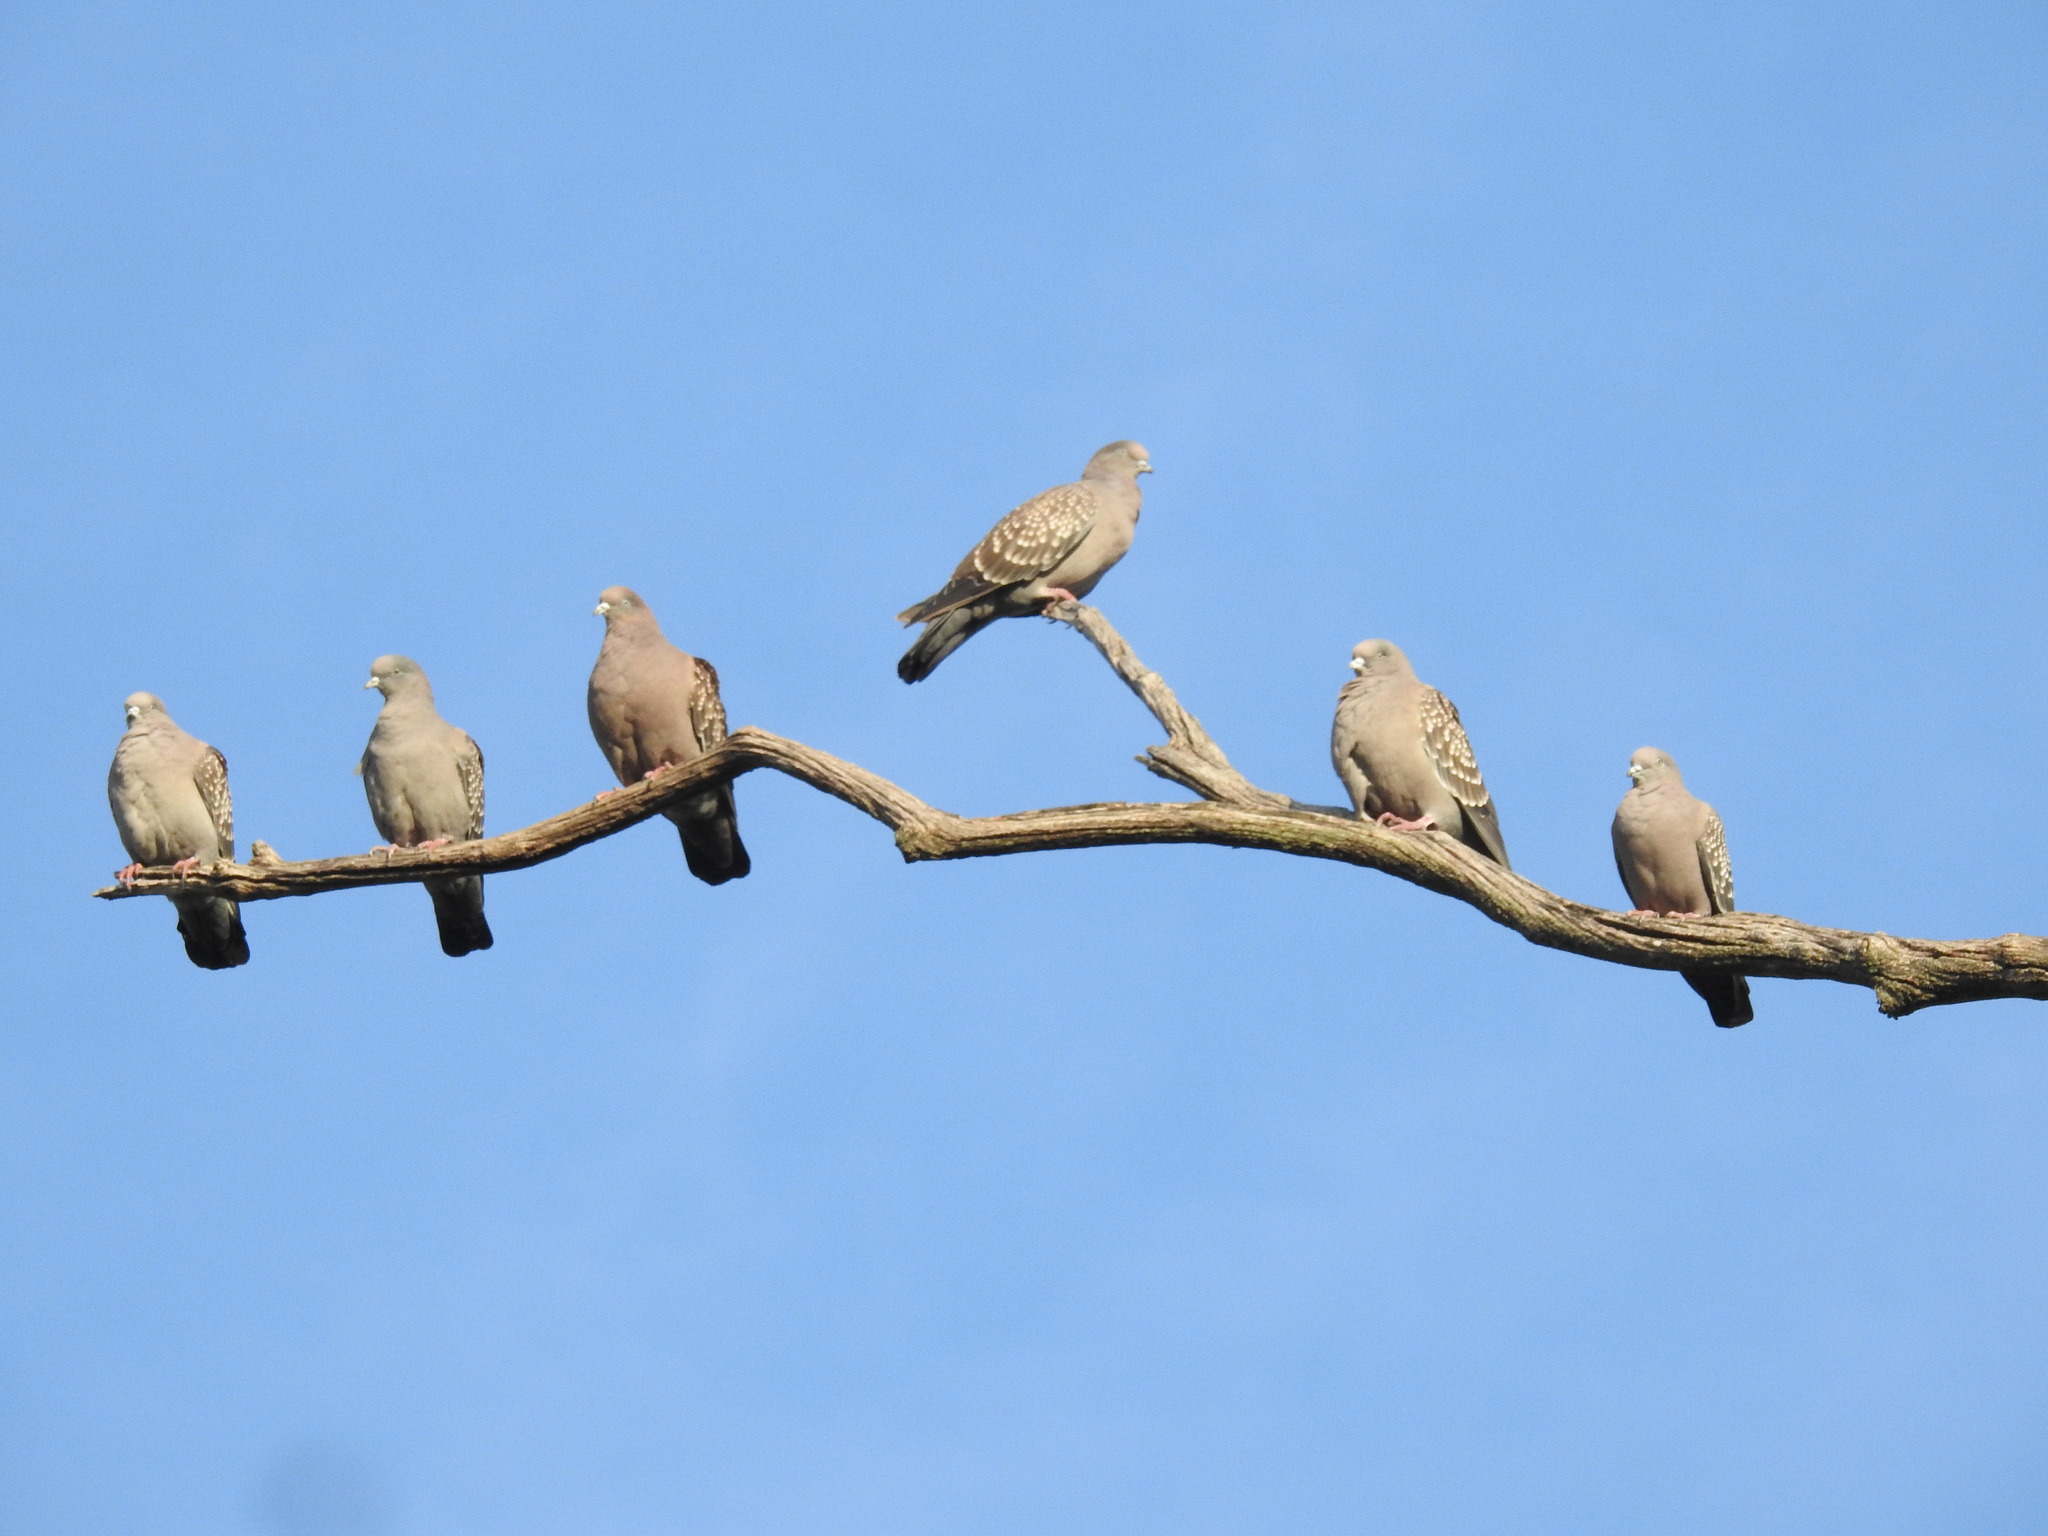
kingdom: Animalia
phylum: Chordata
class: Aves
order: Columbiformes
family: Columbidae
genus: Patagioenas
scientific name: Patagioenas maculosa
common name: Spot-winged pigeon
